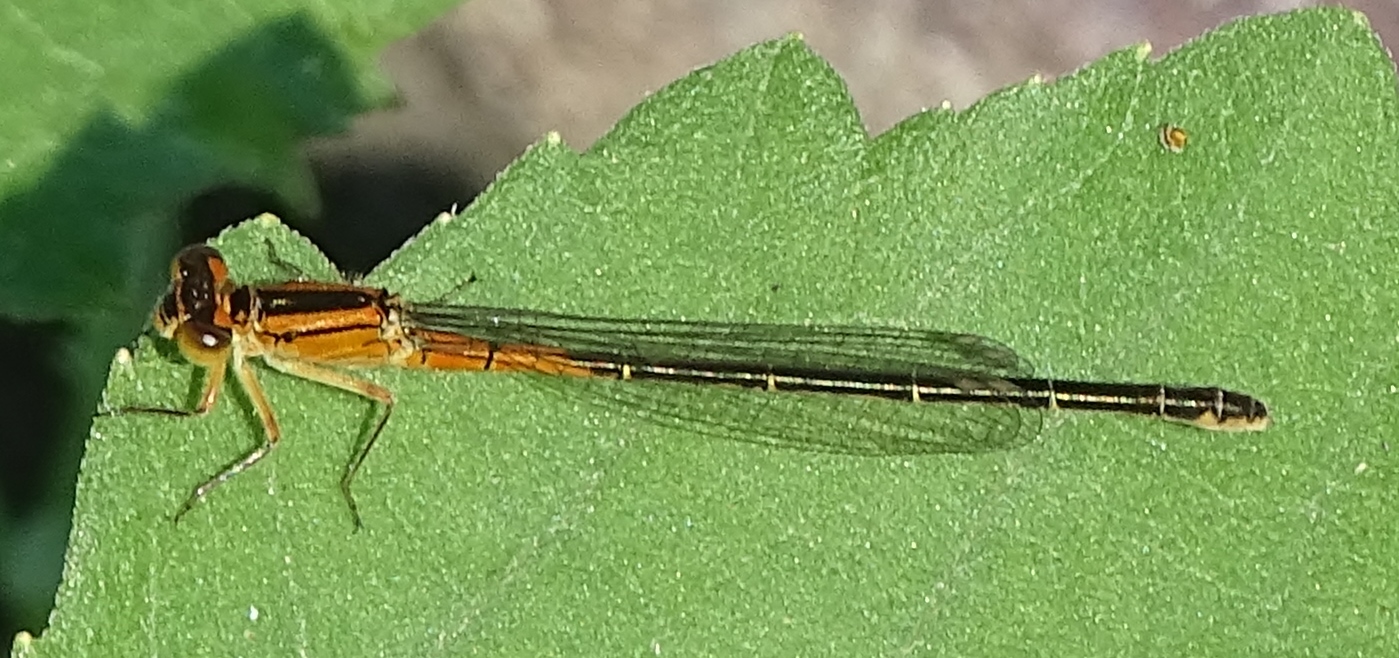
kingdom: Animalia
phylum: Arthropoda
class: Insecta
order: Odonata
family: Coenagrionidae
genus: Ischnura
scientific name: Ischnura verticalis
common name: Eastern forktail
